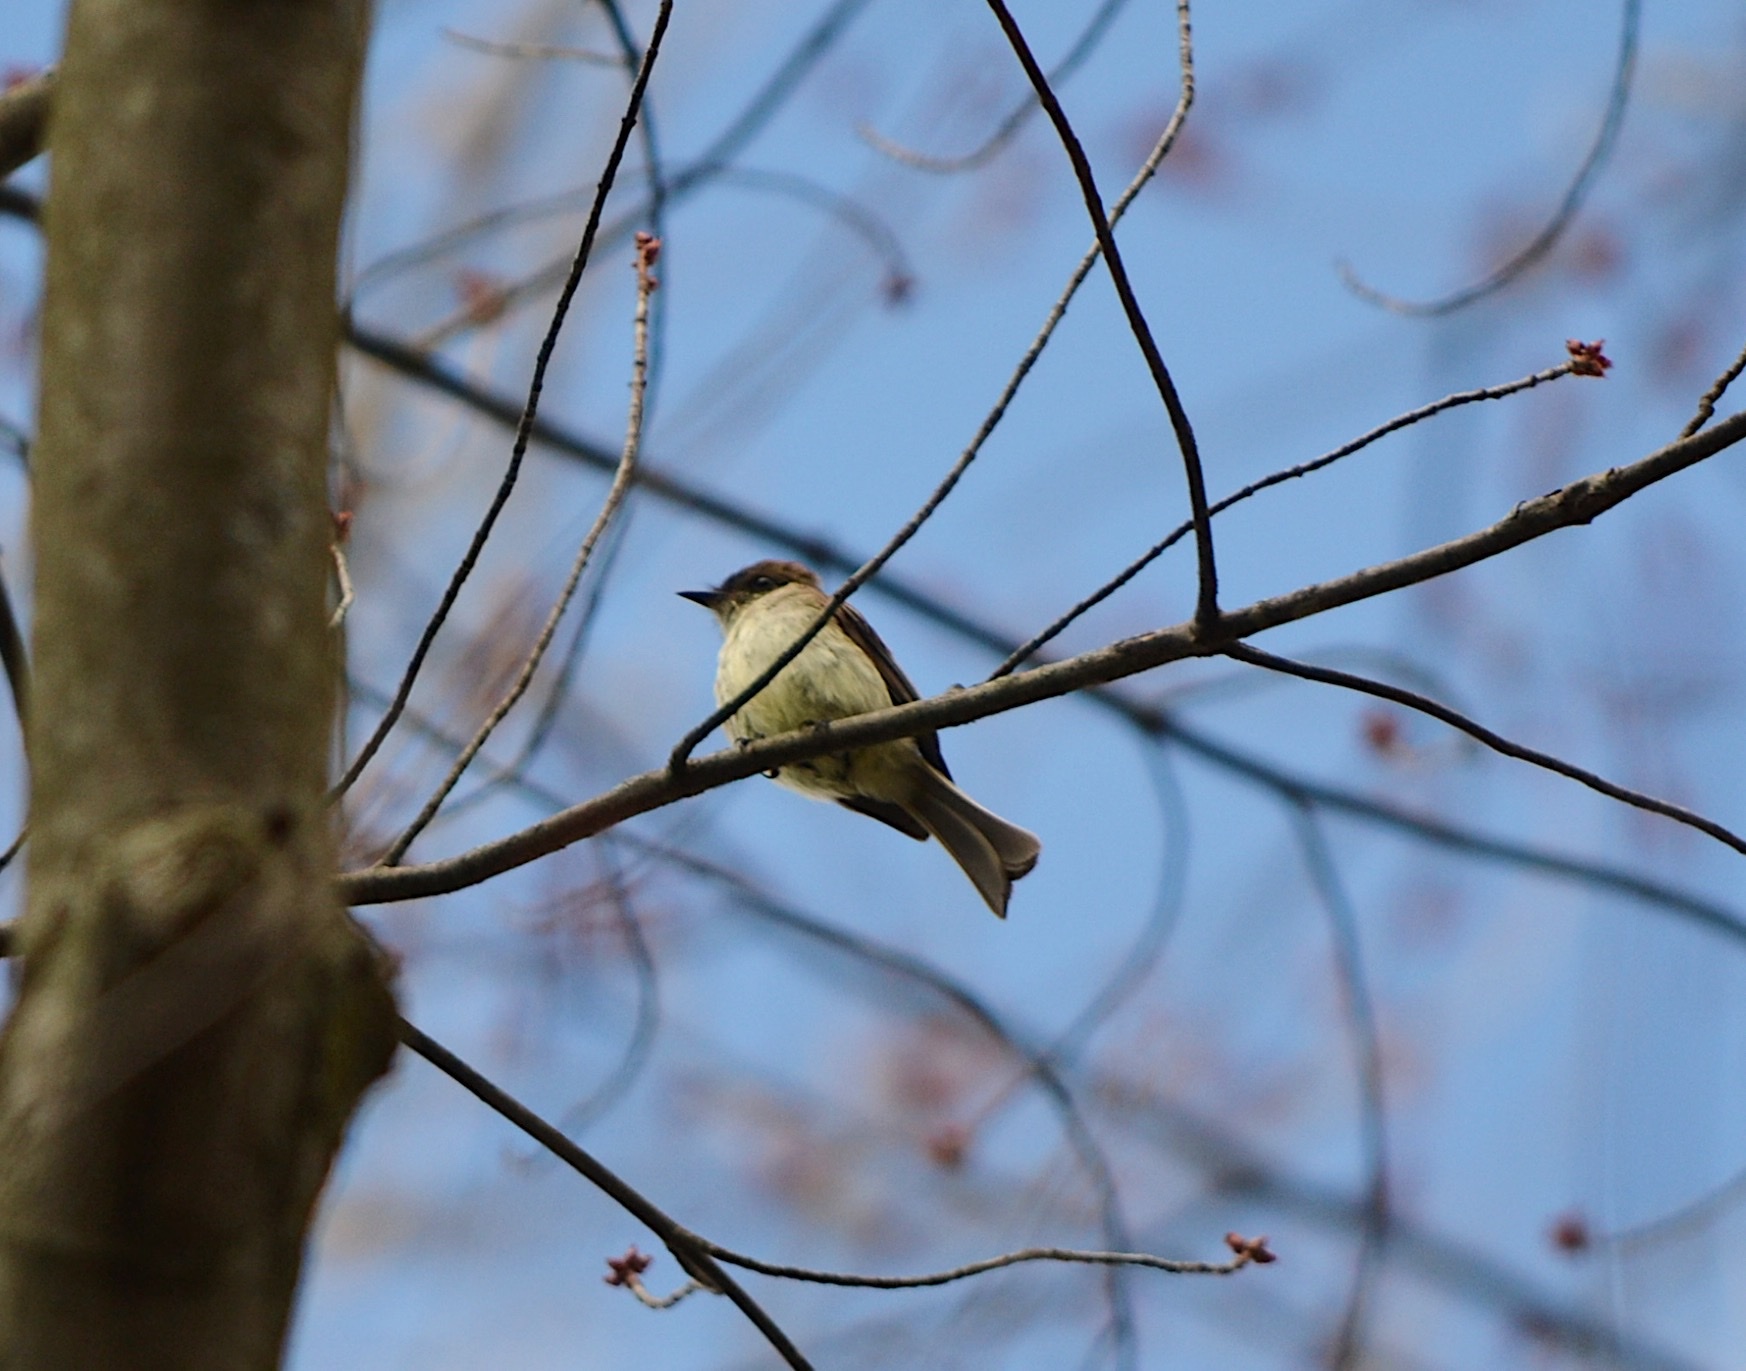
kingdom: Animalia
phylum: Chordata
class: Aves
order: Passeriformes
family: Tyrannidae
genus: Sayornis
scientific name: Sayornis phoebe
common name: Eastern phoebe
